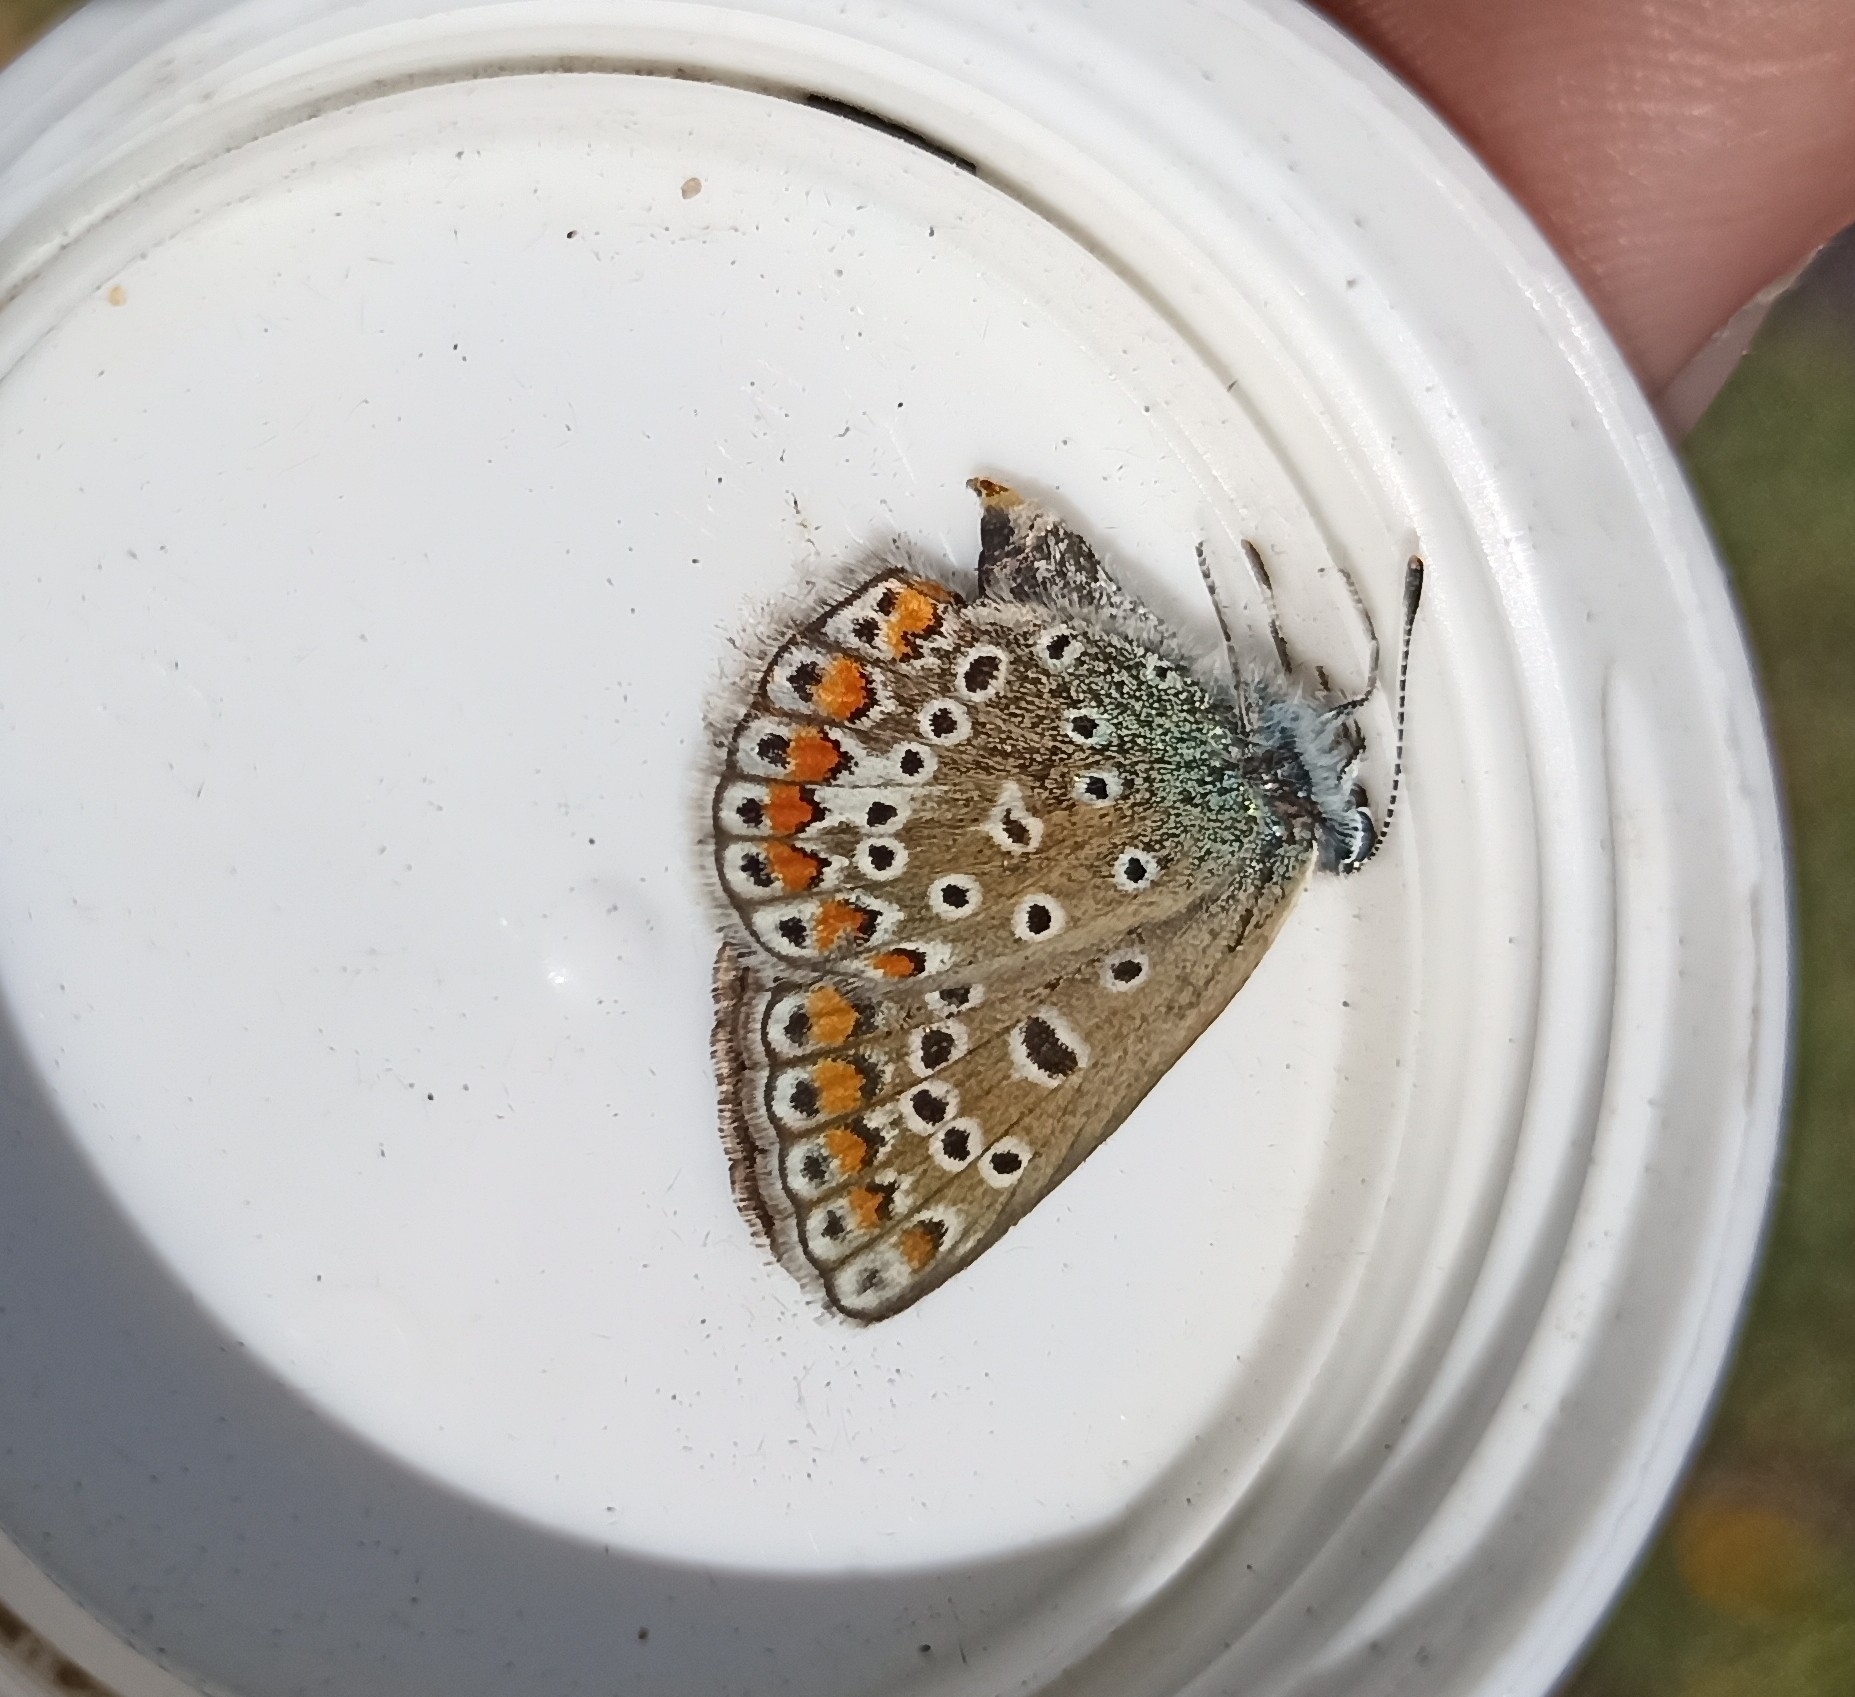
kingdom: Animalia
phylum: Arthropoda
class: Insecta
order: Lepidoptera
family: Lycaenidae
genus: Polyommatus
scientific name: Polyommatus icarus
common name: Common blue
